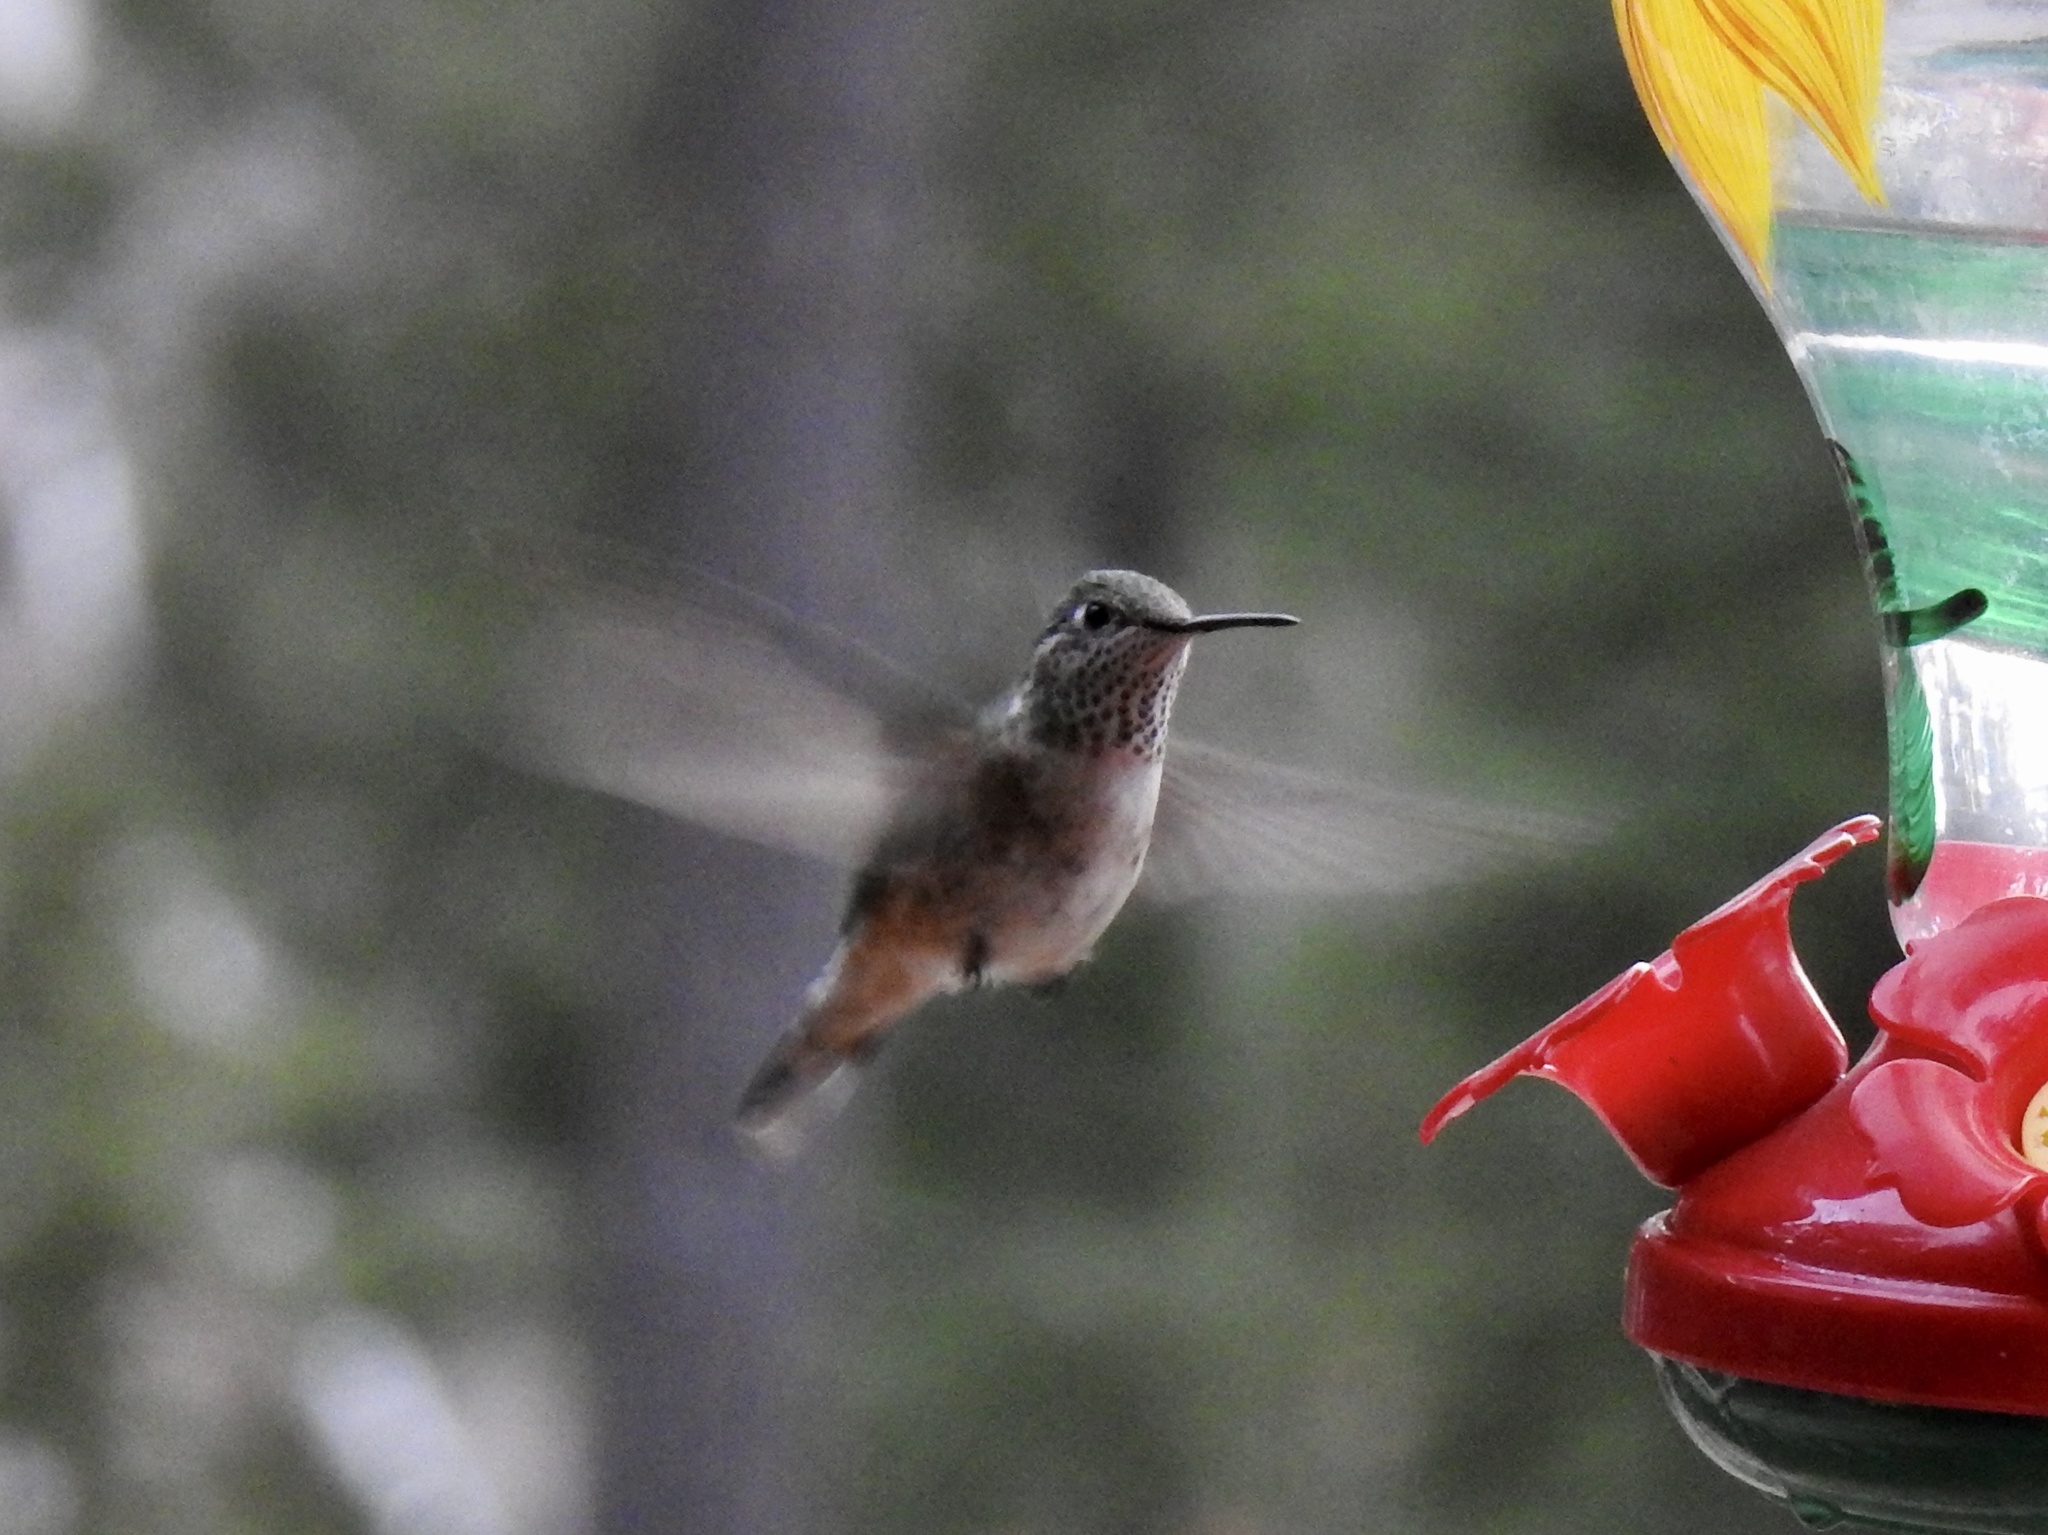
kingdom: Animalia
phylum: Chordata
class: Aves
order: Apodiformes
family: Trochilidae
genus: Selasphorus
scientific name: Selasphorus platycercus
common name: Broad-tailed hummingbird
